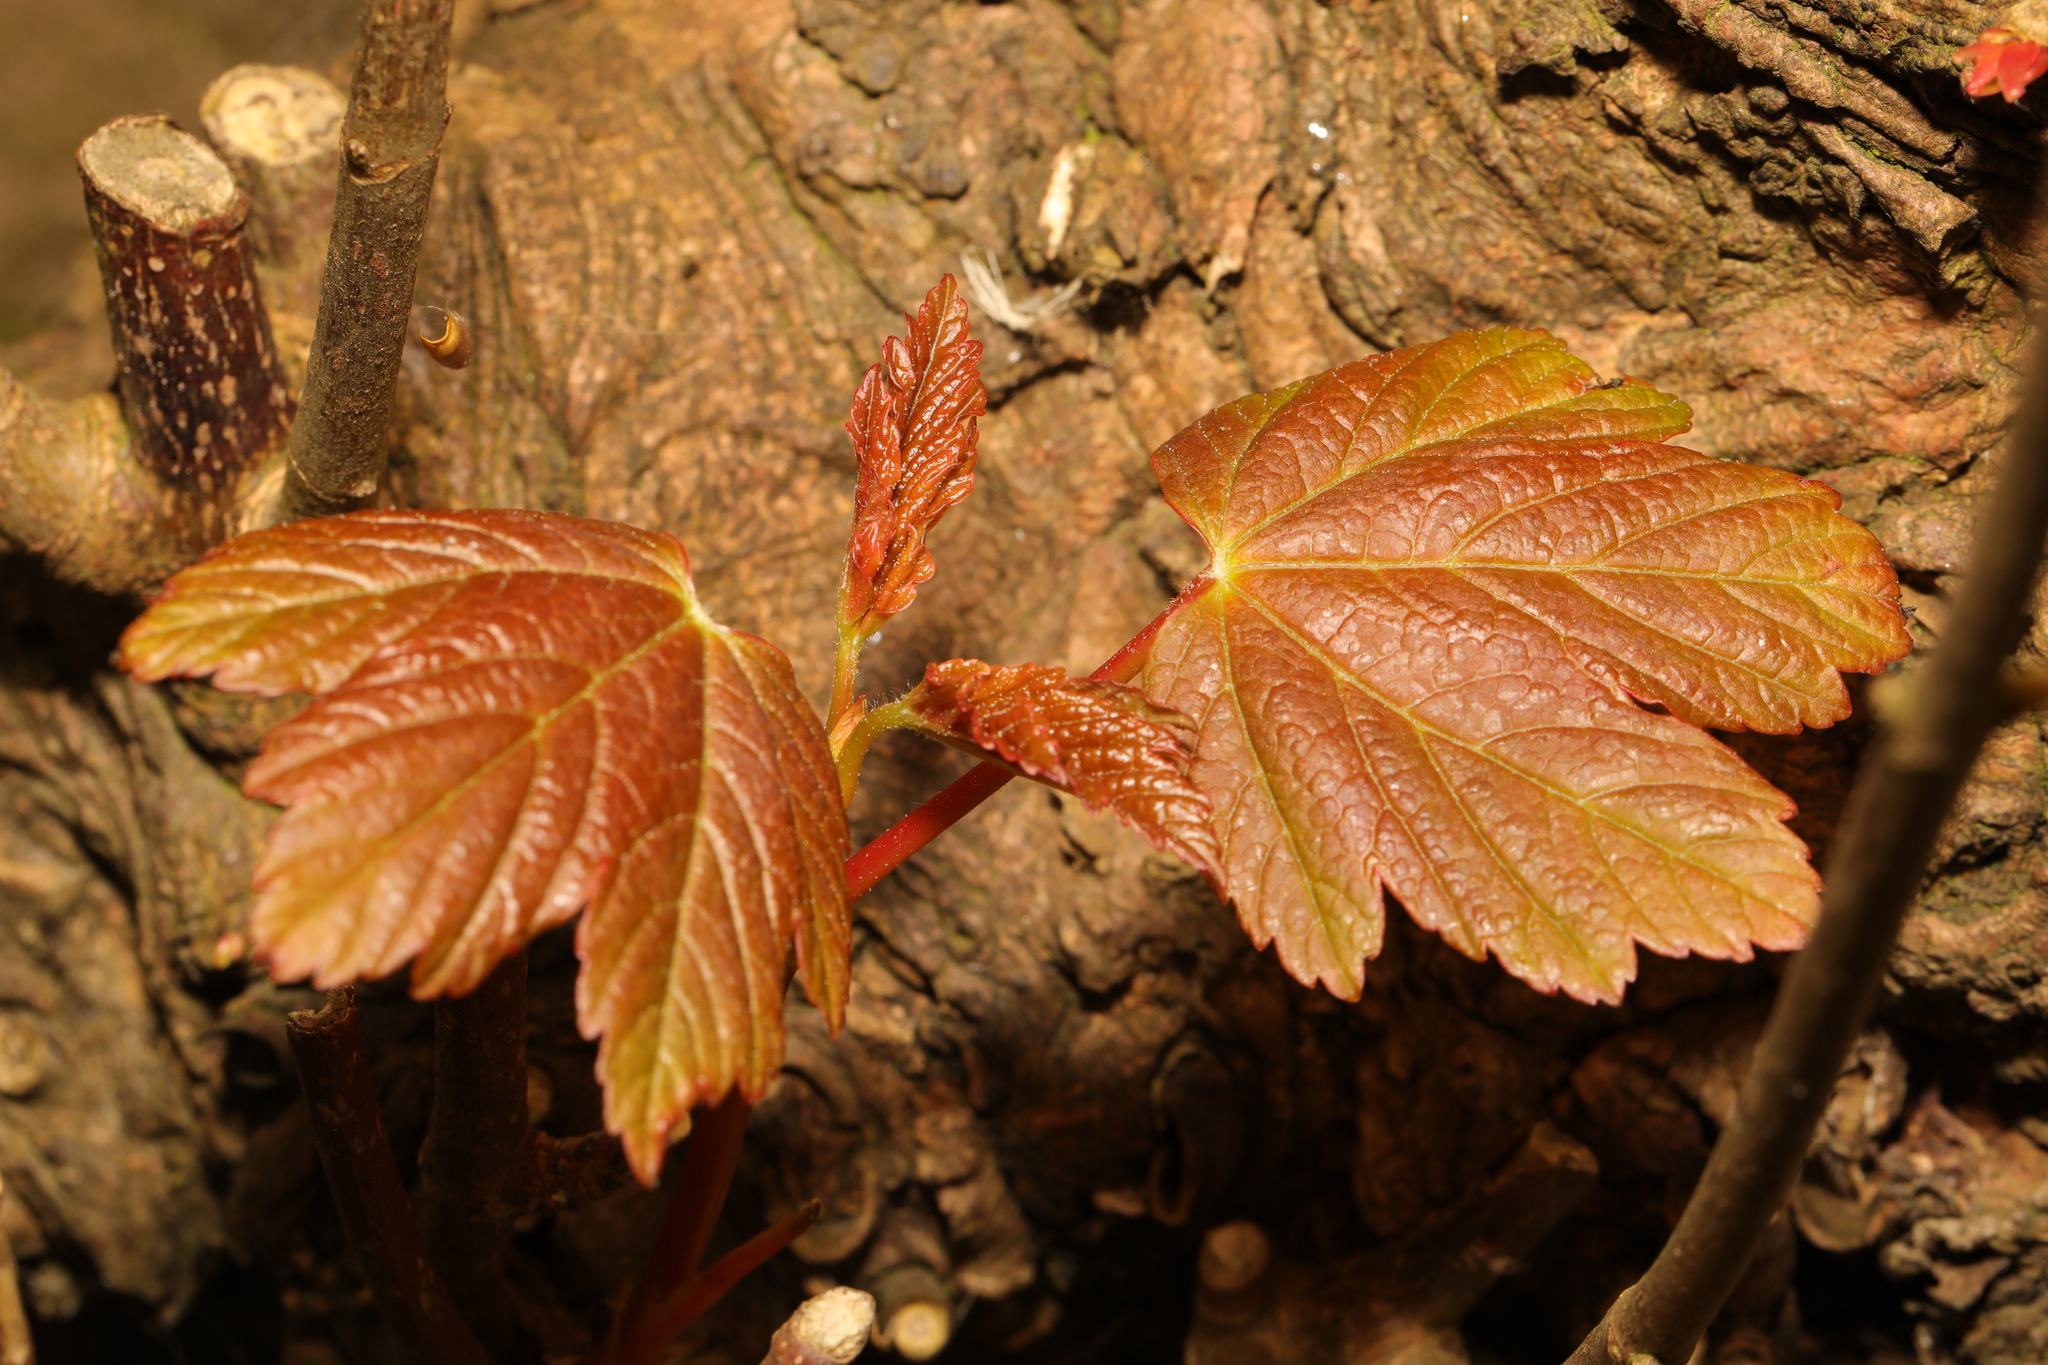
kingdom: Plantae
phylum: Tracheophyta
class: Magnoliopsida
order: Sapindales
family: Sapindaceae
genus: Acer
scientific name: Acer pseudoplatanus
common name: Sycamore
